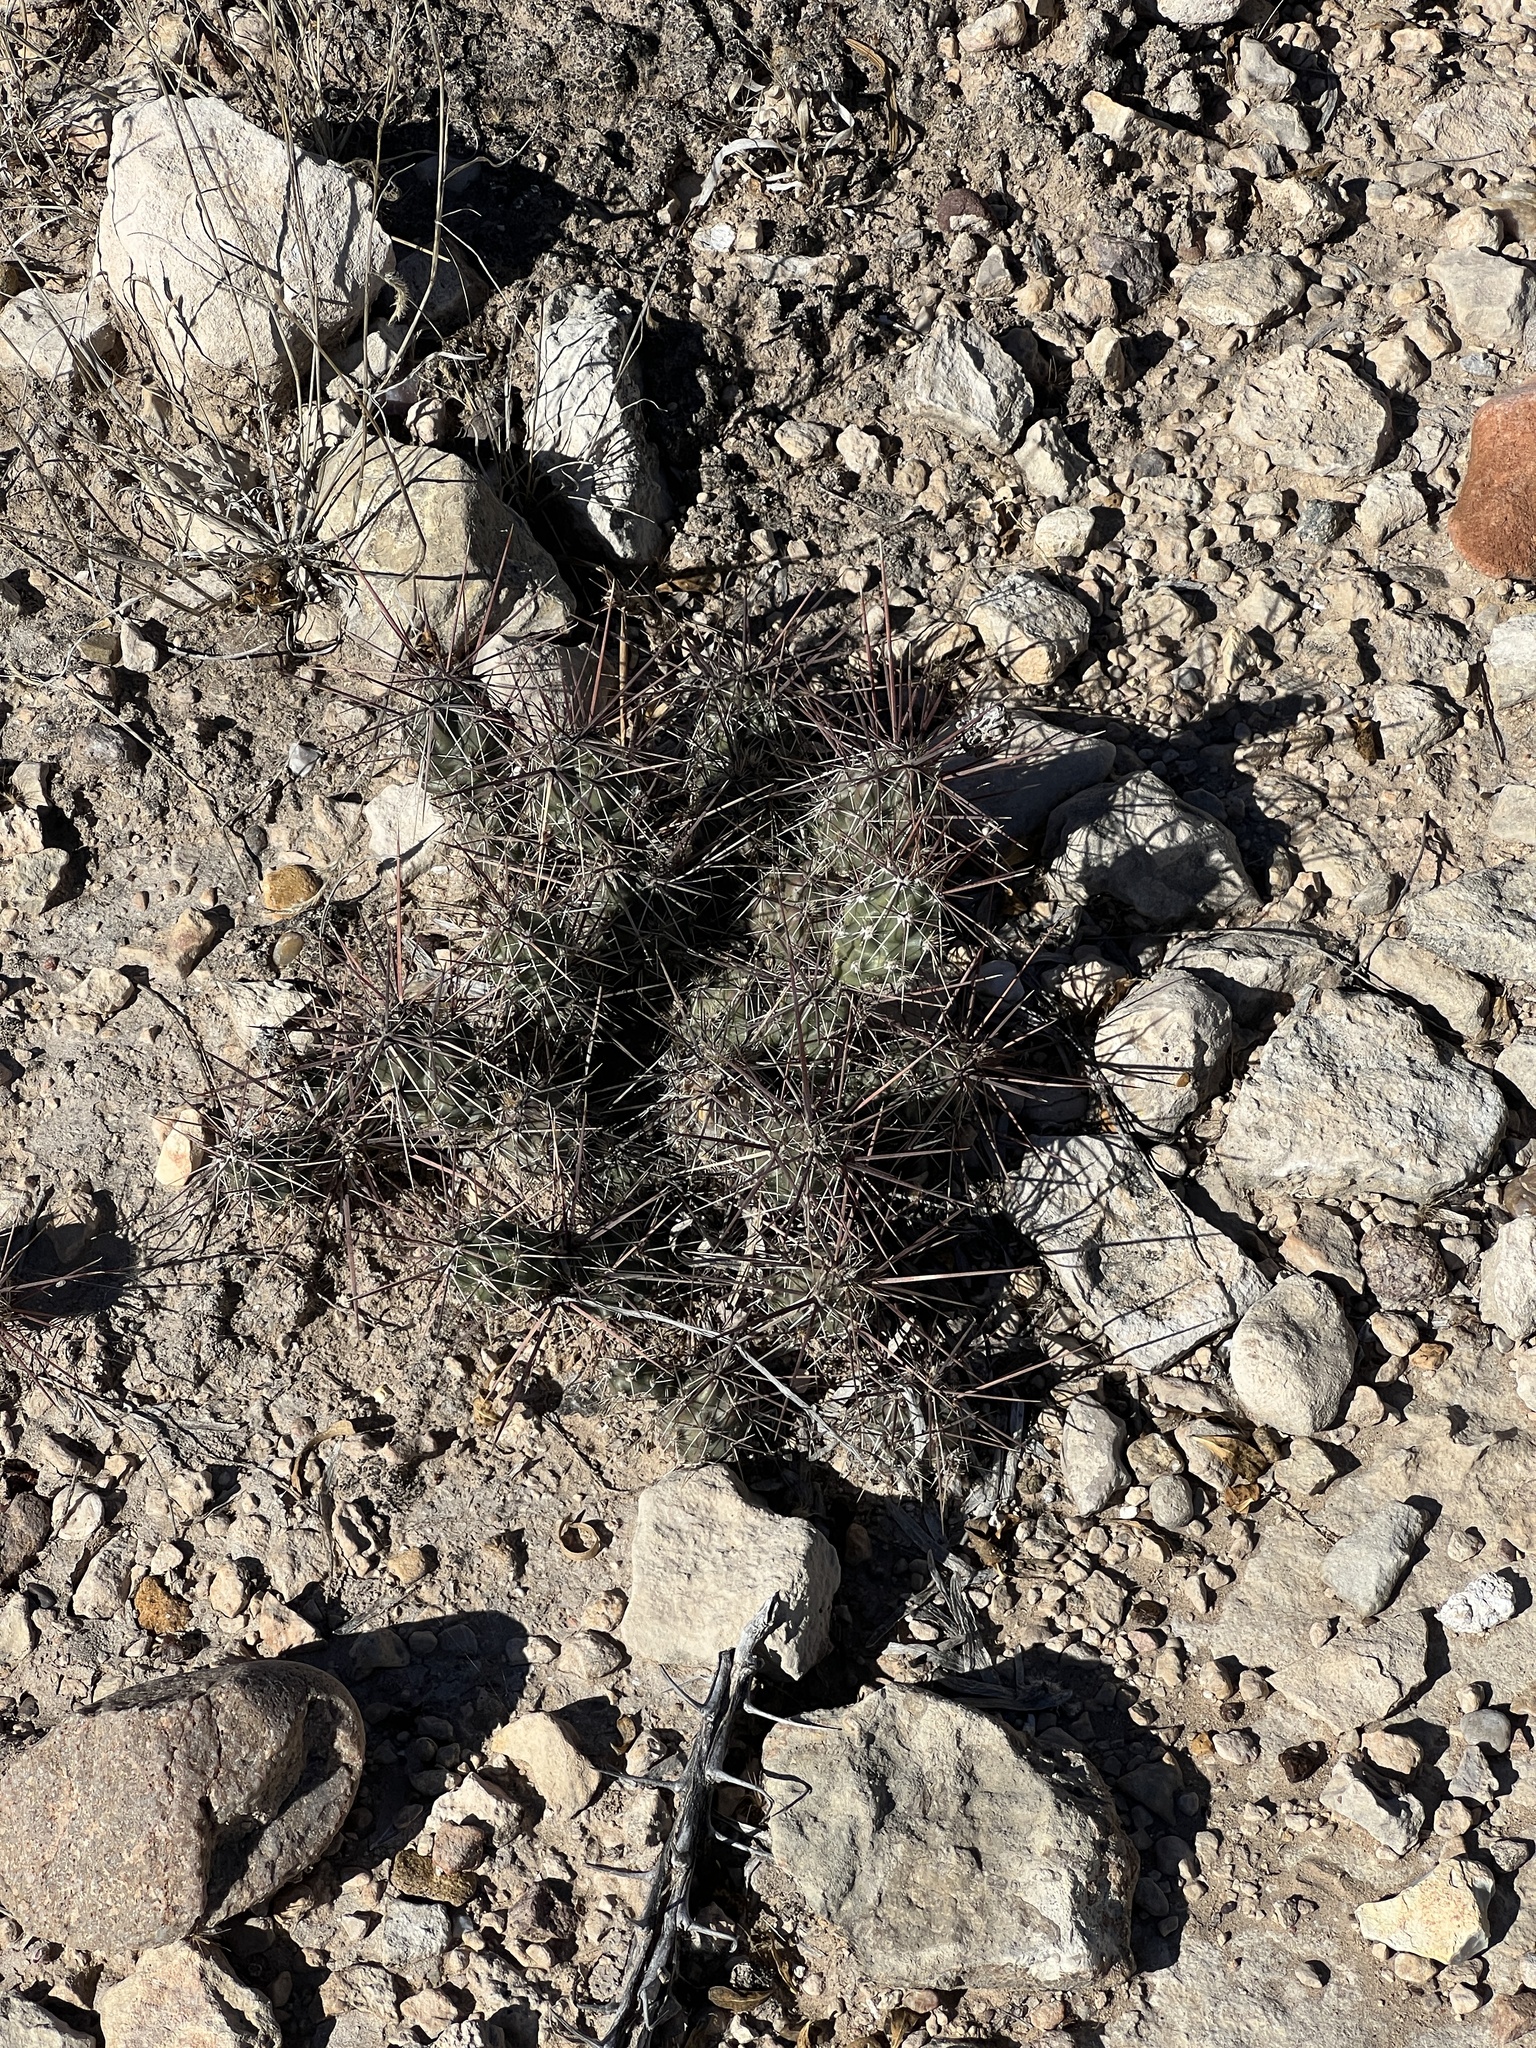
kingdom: Plantae
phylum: Tracheophyta
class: Magnoliopsida
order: Caryophyllales
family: Cactaceae
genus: Grusonia
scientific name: Grusonia schottii
